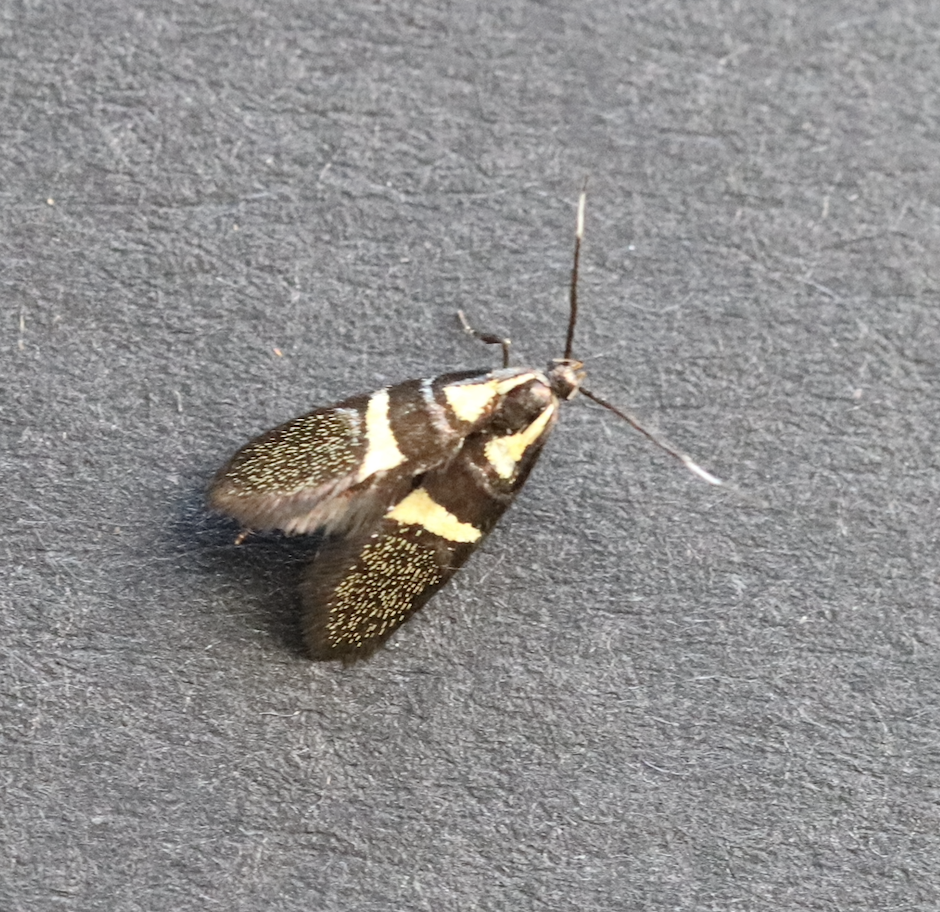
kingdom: Animalia
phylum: Arthropoda
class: Insecta
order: Lepidoptera
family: Oecophoridae
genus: Dafa
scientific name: Dafa oliviella
